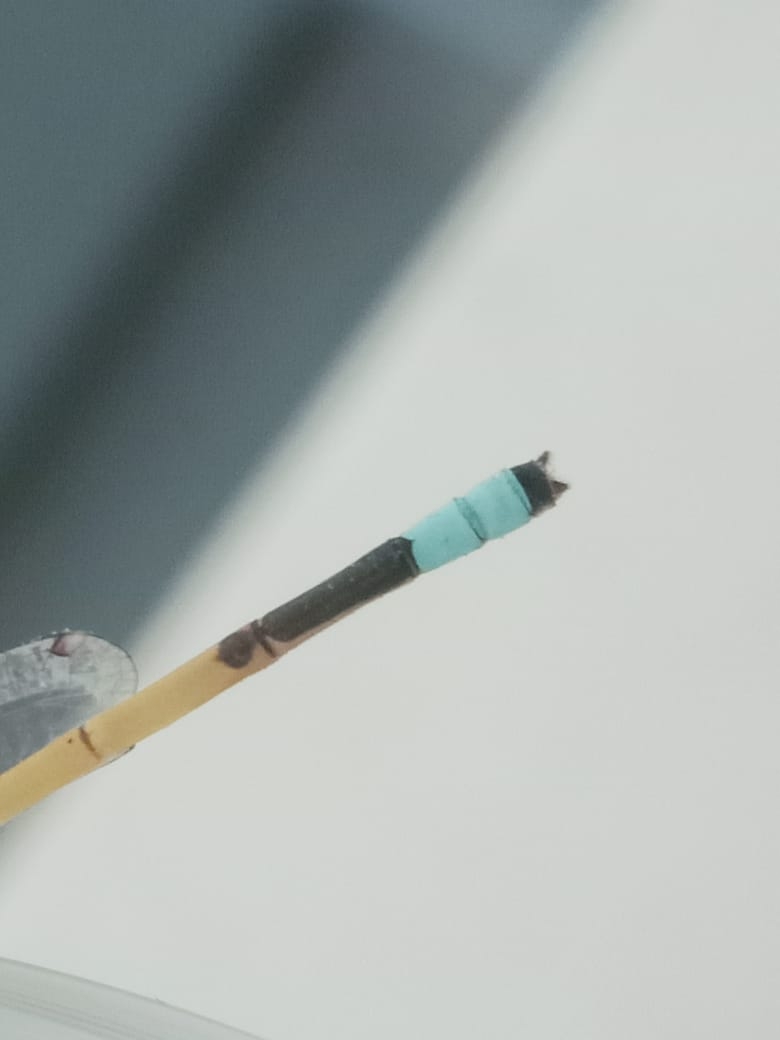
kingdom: Animalia
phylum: Arthropoda
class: Insecta
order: Odonata
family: Coenagrionidae
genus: Ischnura
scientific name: Ischnura rubilio
